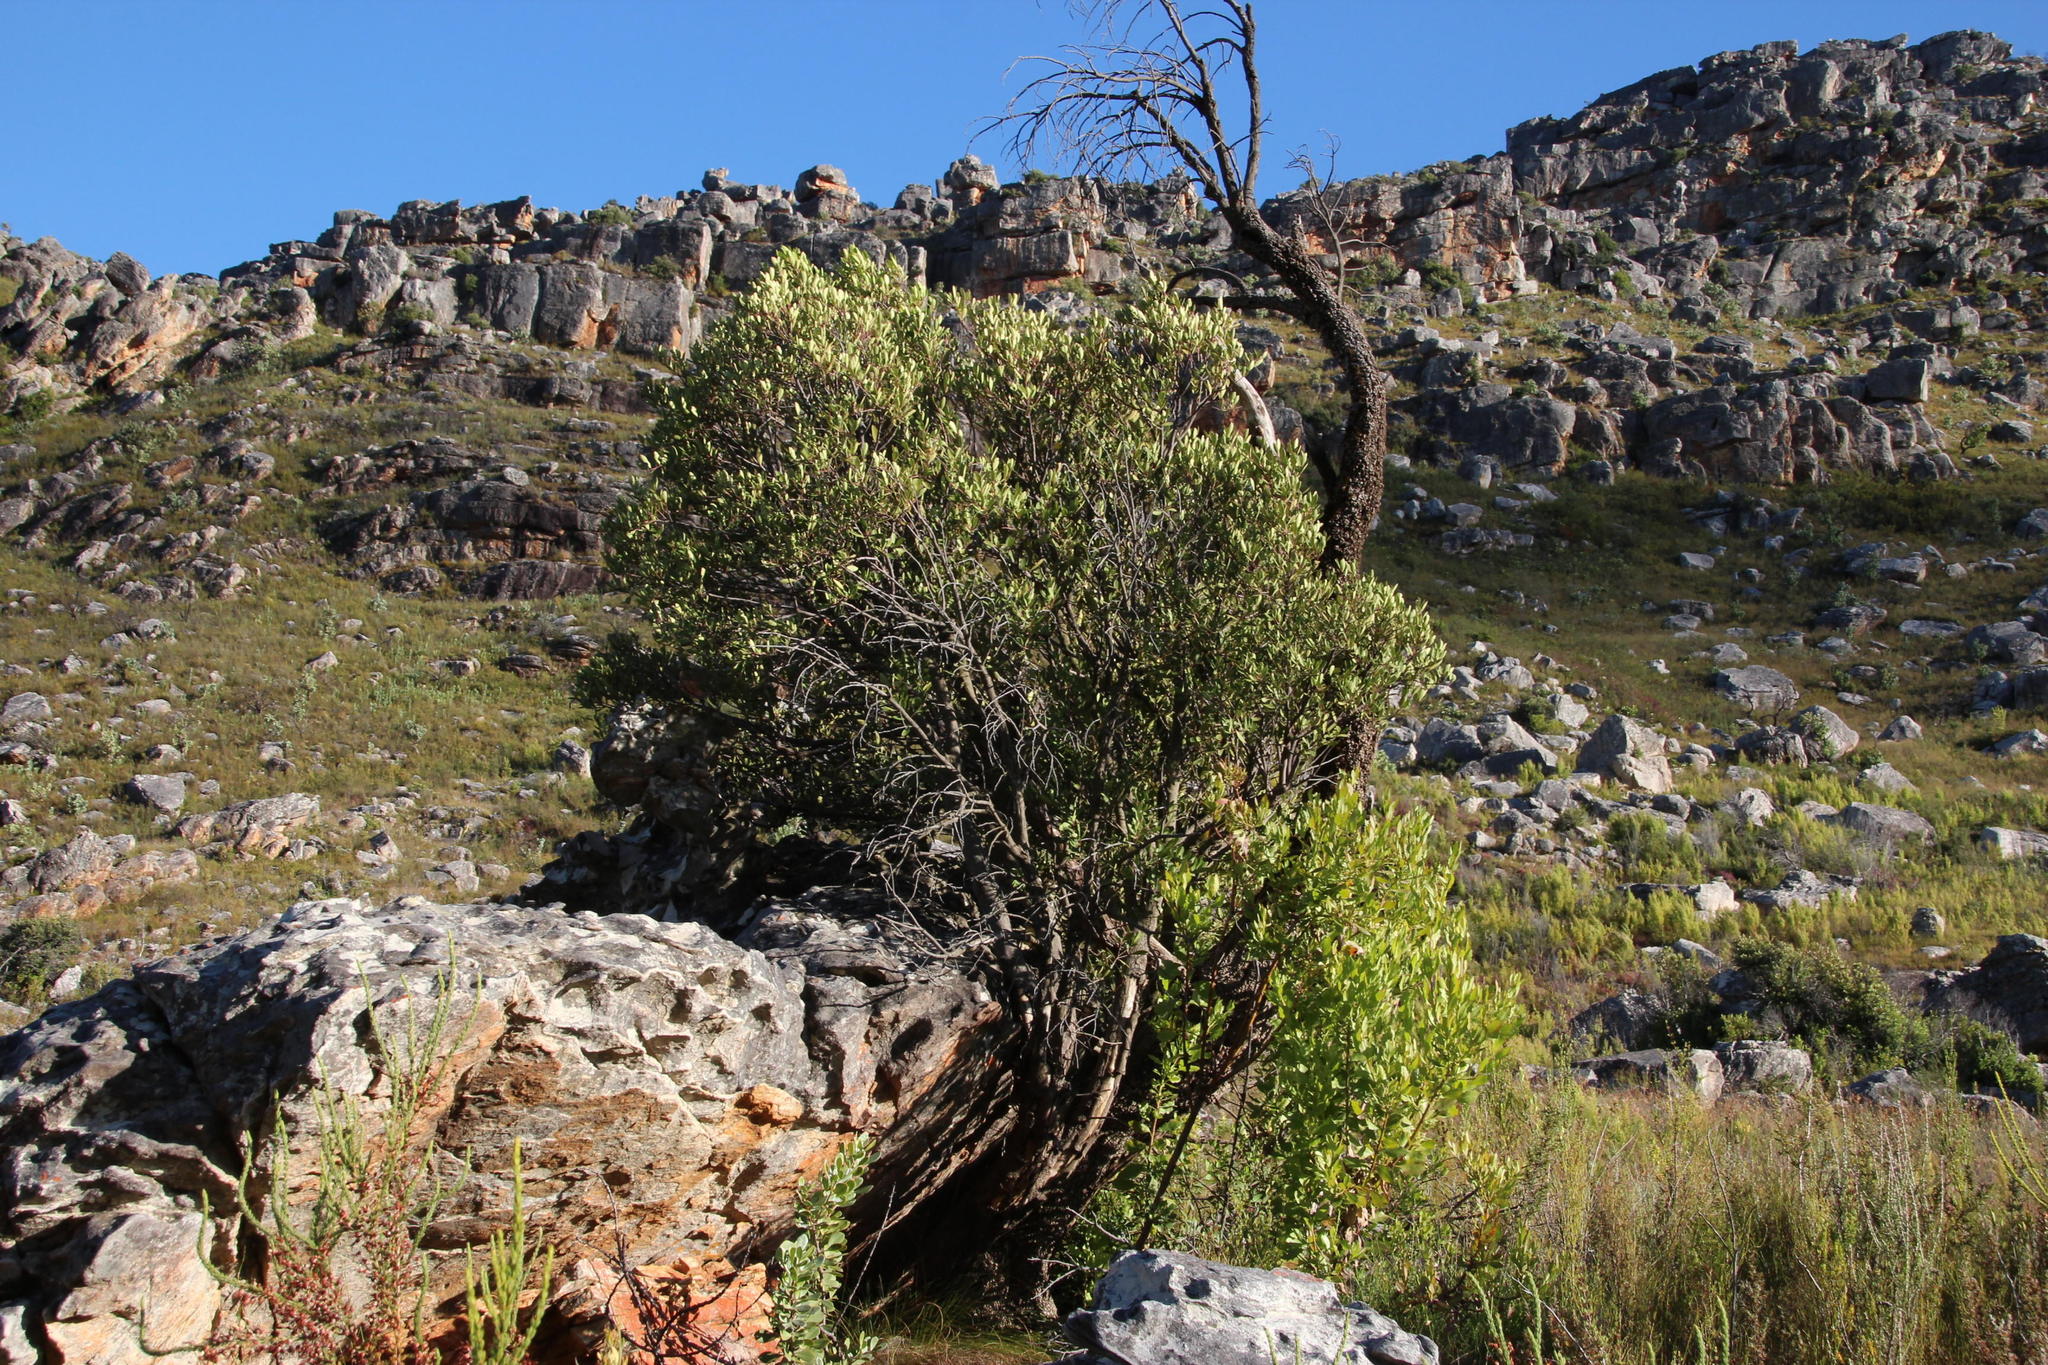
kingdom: Plantae
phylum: Tracheophyta
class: Magnoliopsida
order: Celastrales
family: Celastraceae
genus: Gymnosporia
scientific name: Gymnosporia laurina
